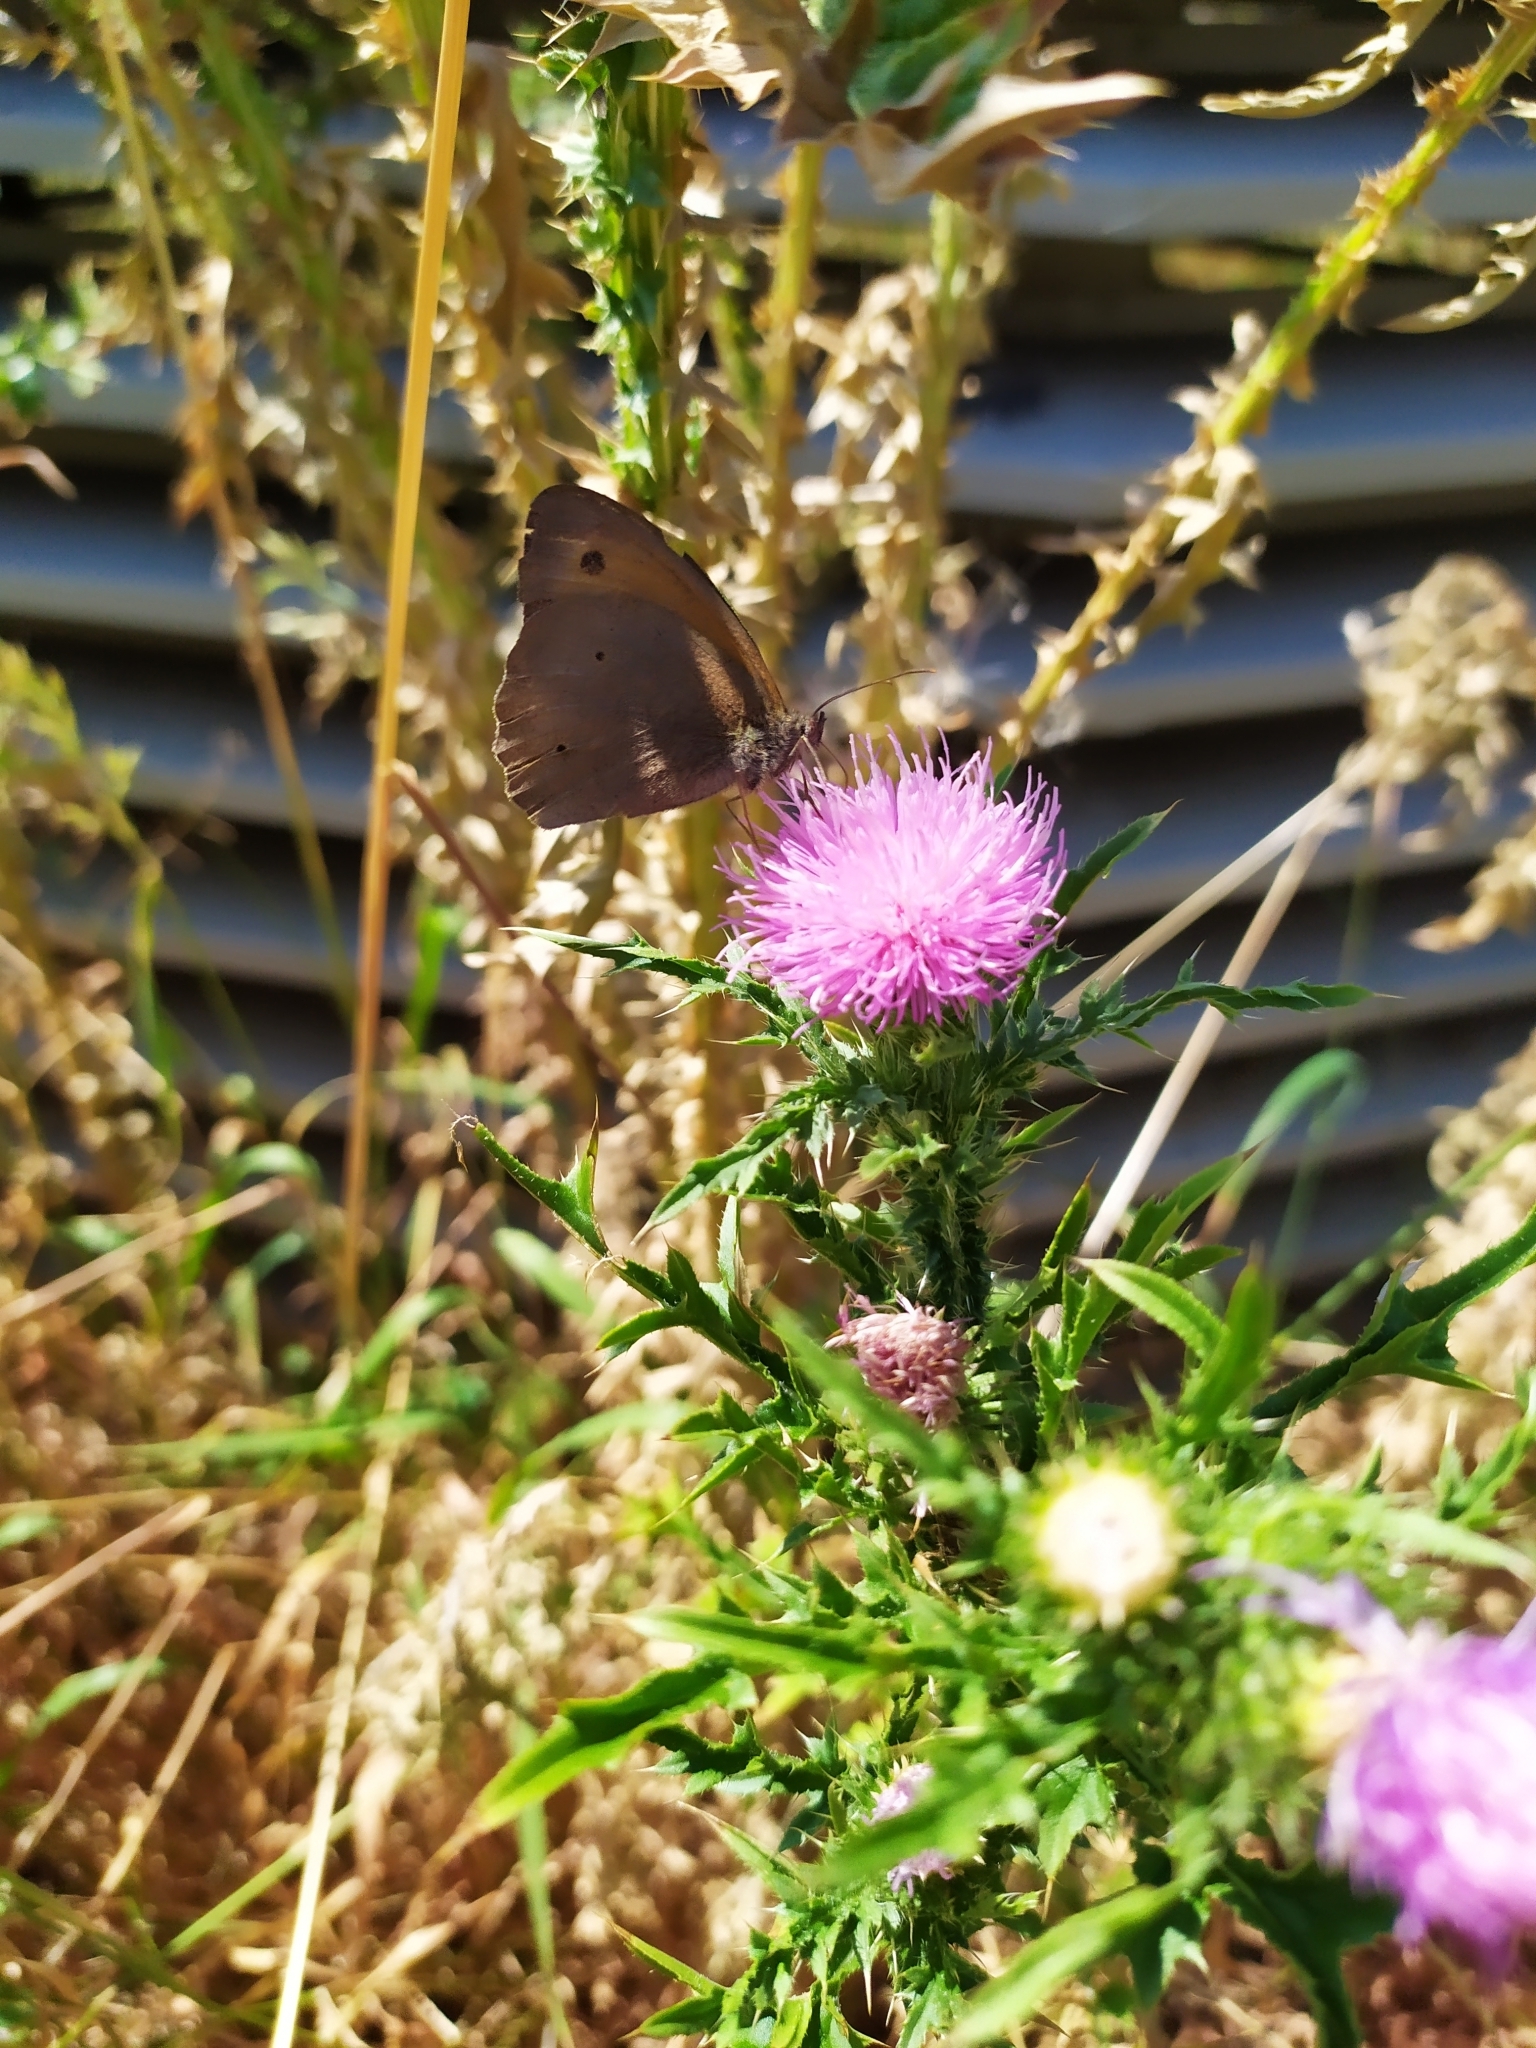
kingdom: Animalia
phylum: Arthropoda
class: Insecta
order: Lepidoptera
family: Nymphalidae
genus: Maniola
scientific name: Maniola jurtina
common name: Meadow brown
